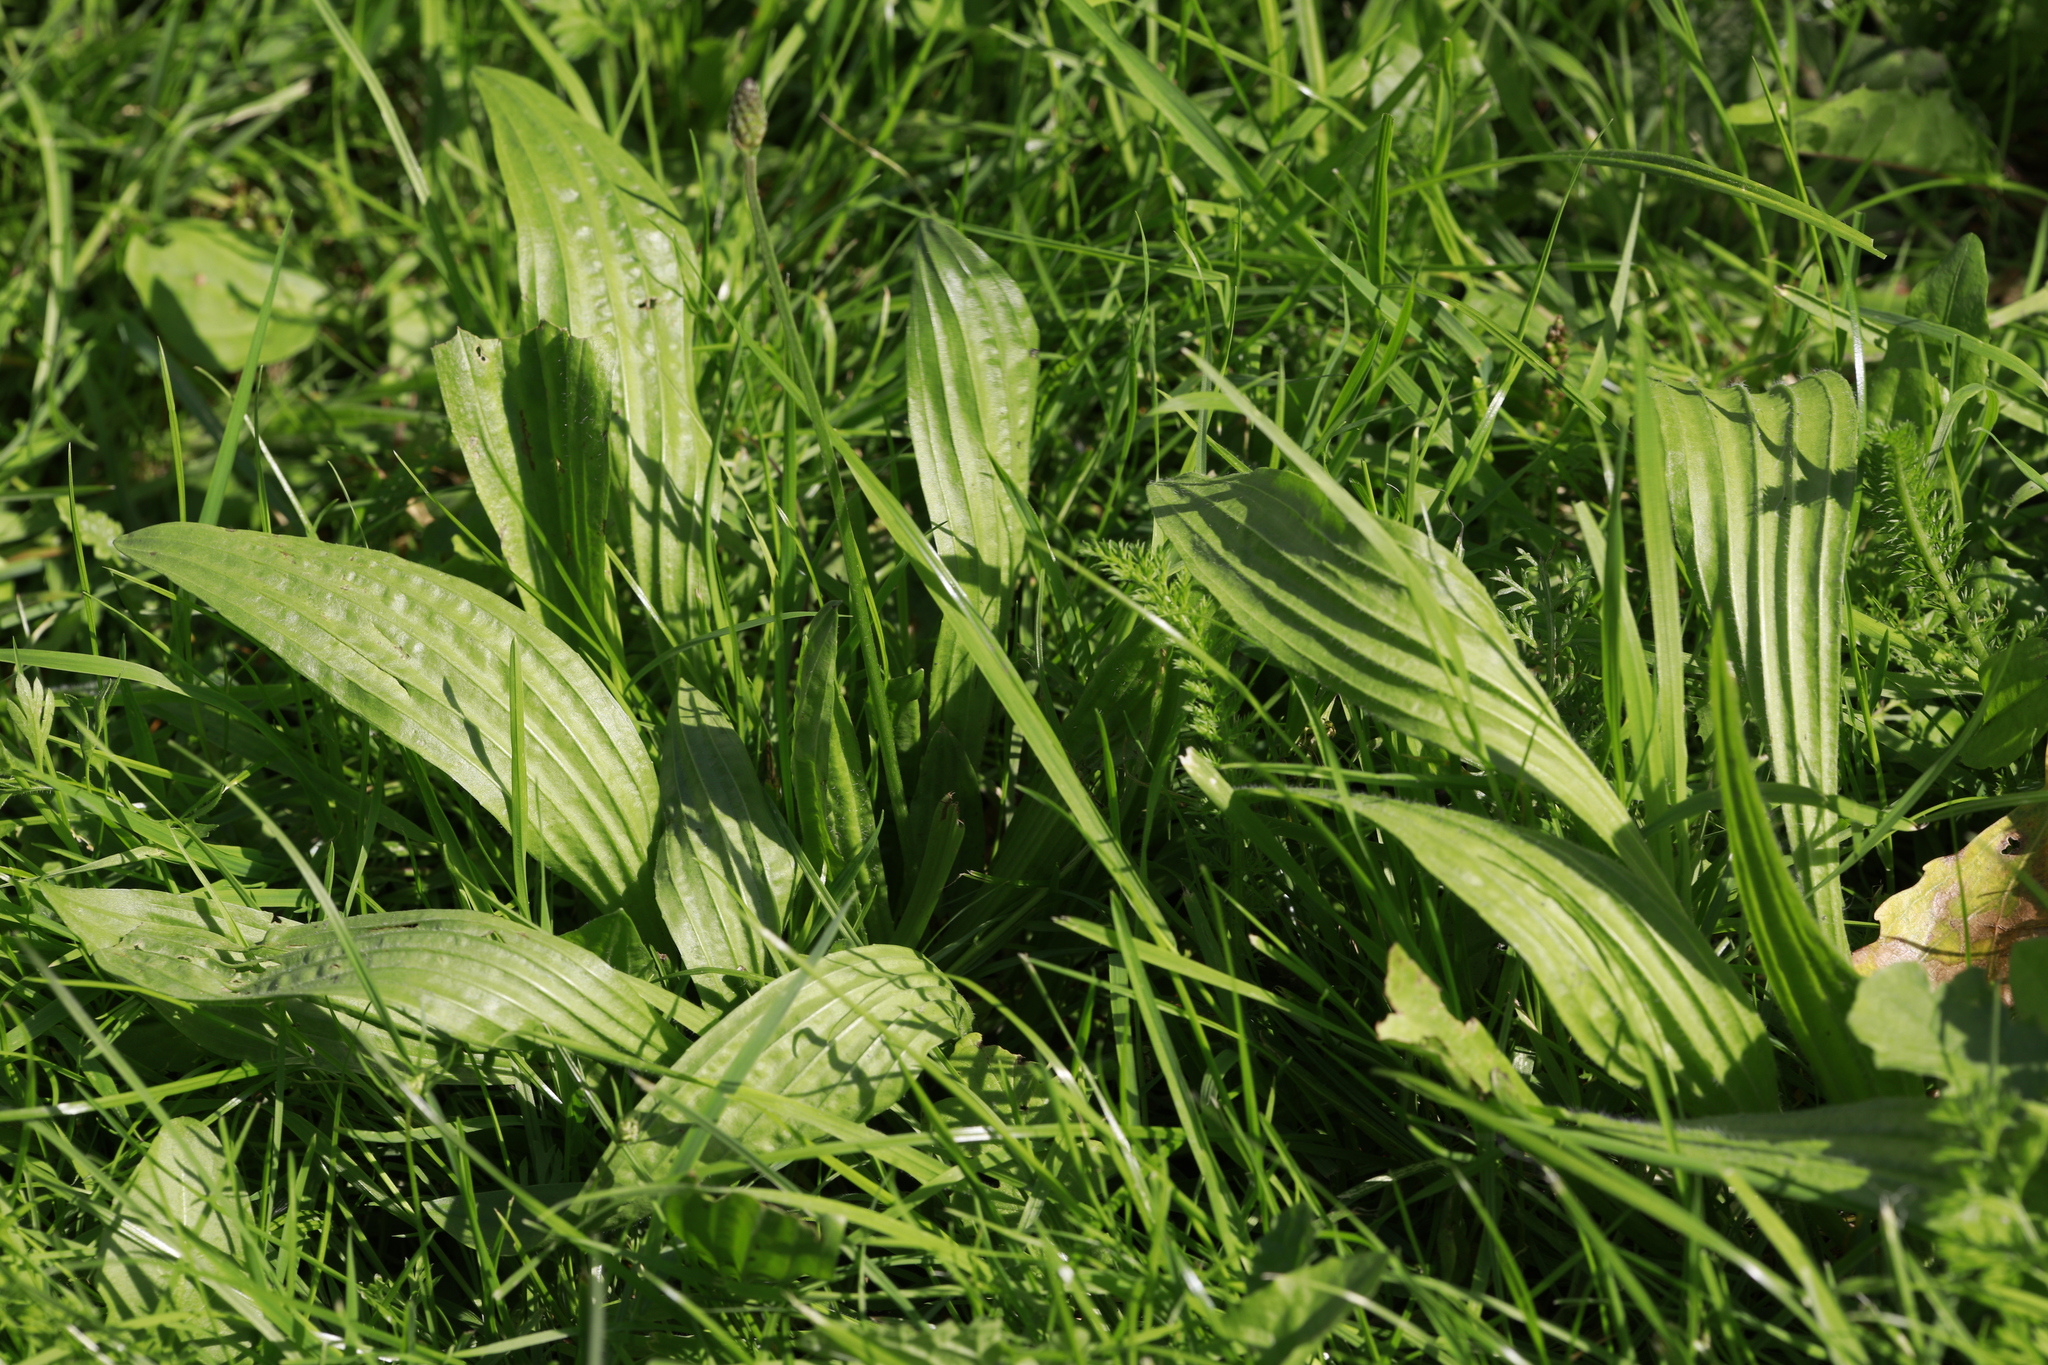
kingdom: Plantae
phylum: Tracheophyta
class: Magnoliopsida
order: Lamiales
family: Plantaginaceae
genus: Plantago
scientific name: Plantago lanceolata
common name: Ribwort plantain
